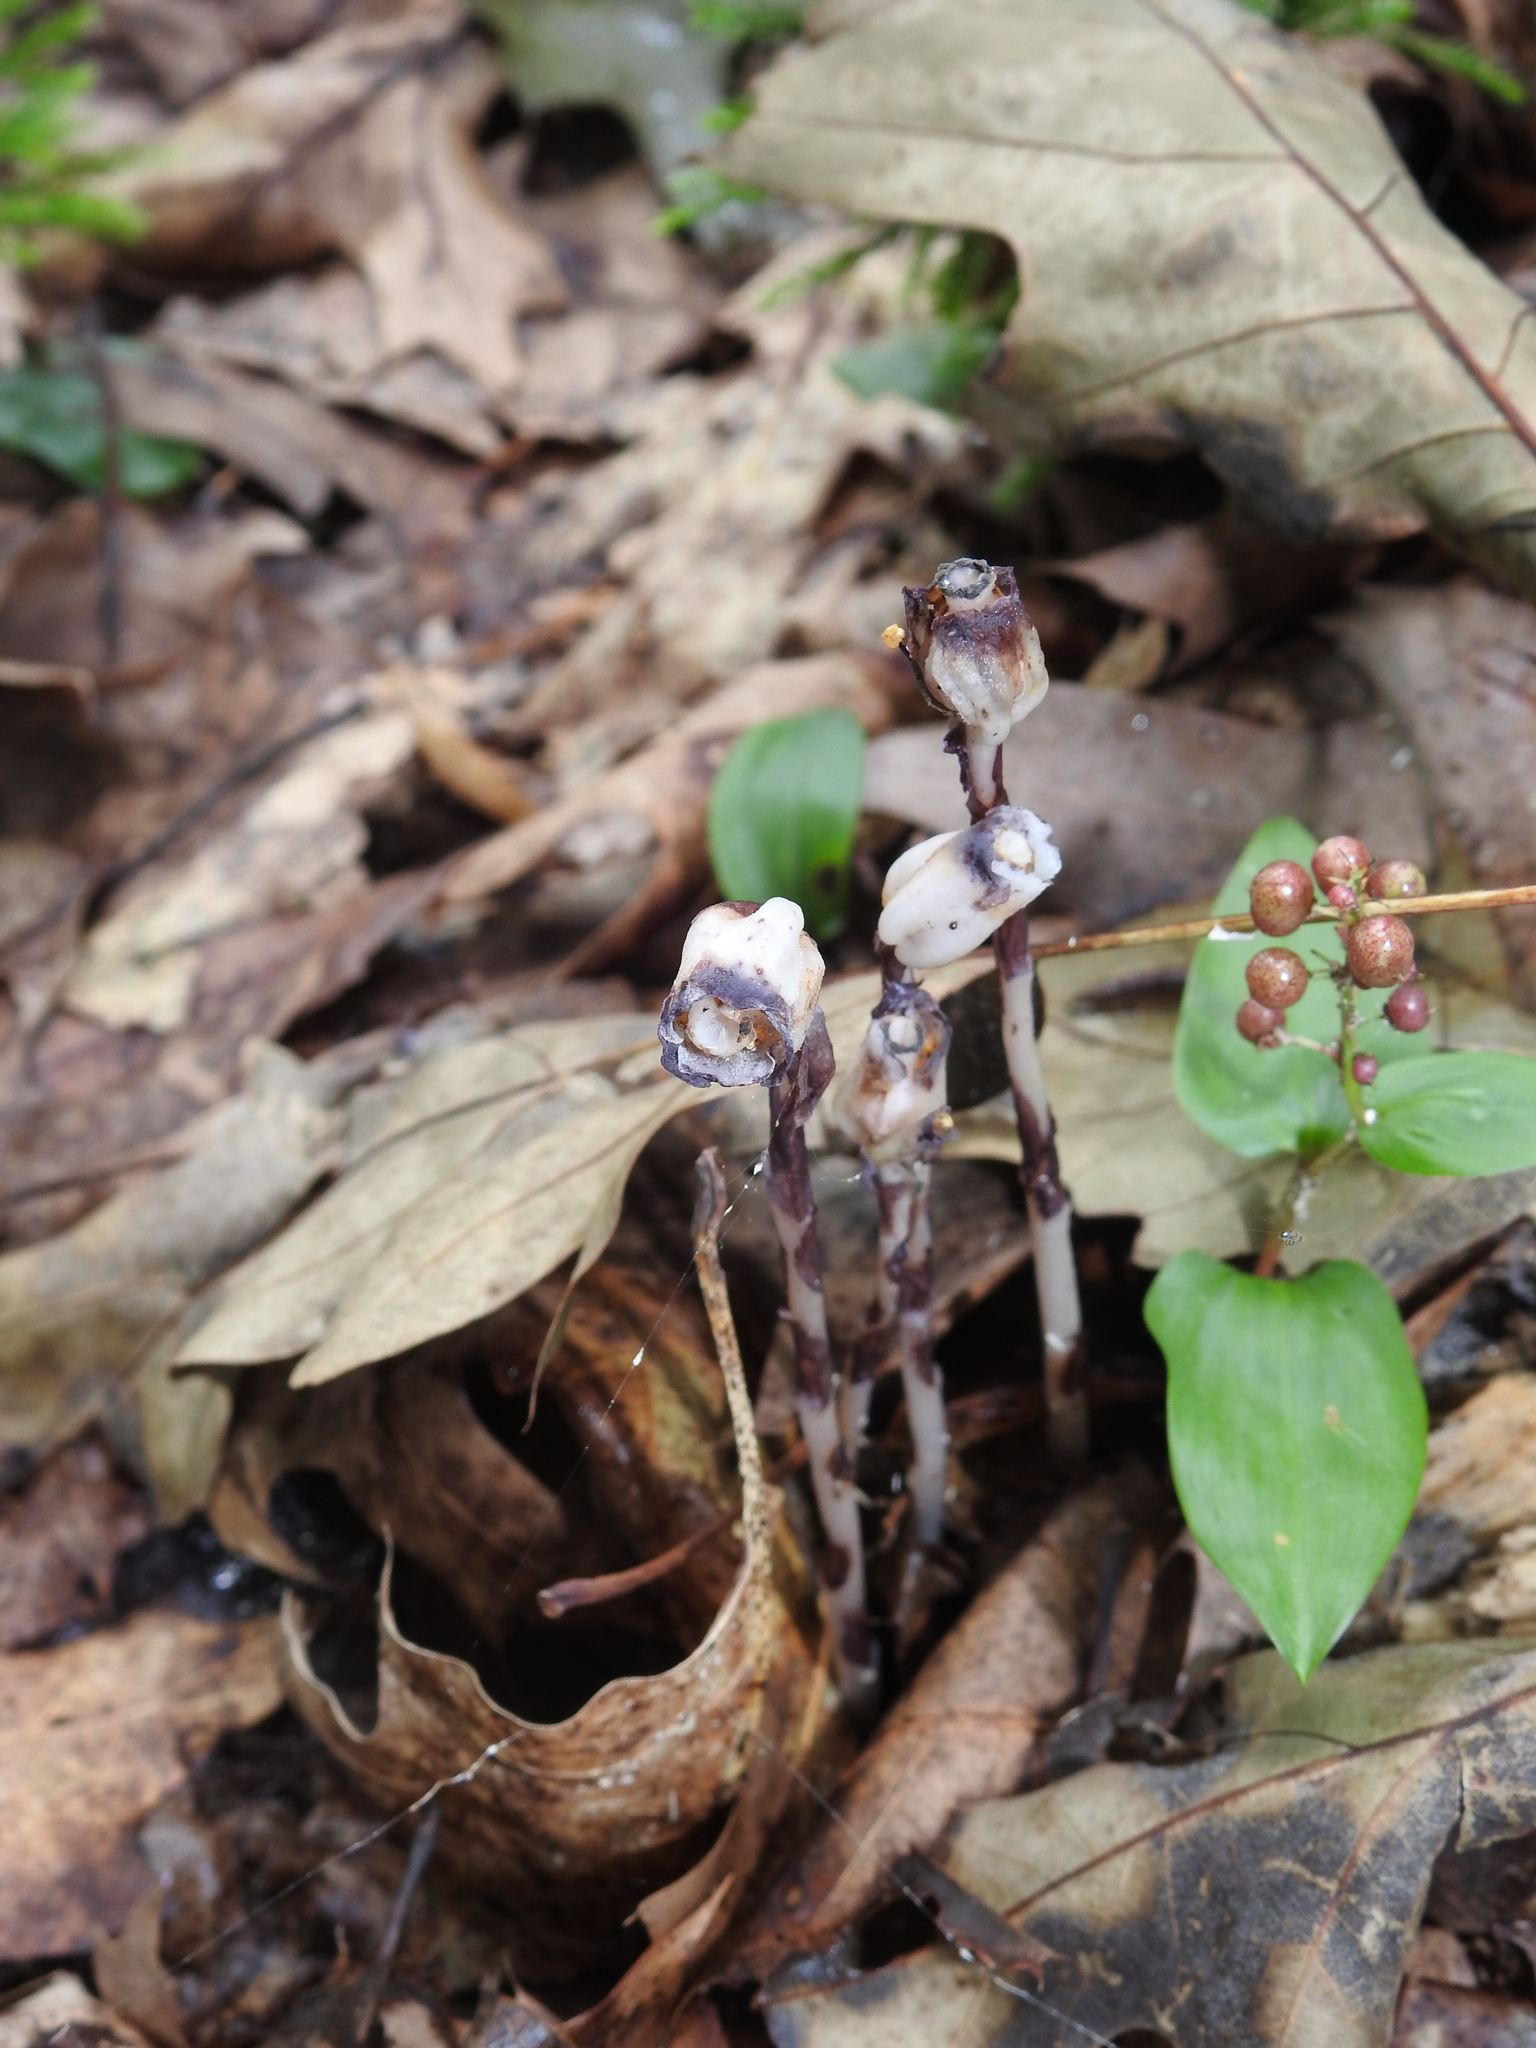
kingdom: Plantae
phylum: Tracheophyta
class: Magnoliopsida
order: Ericales
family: Ericaceae
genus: Monotropa
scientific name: Monotropa uniflora
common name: Convulsion root
